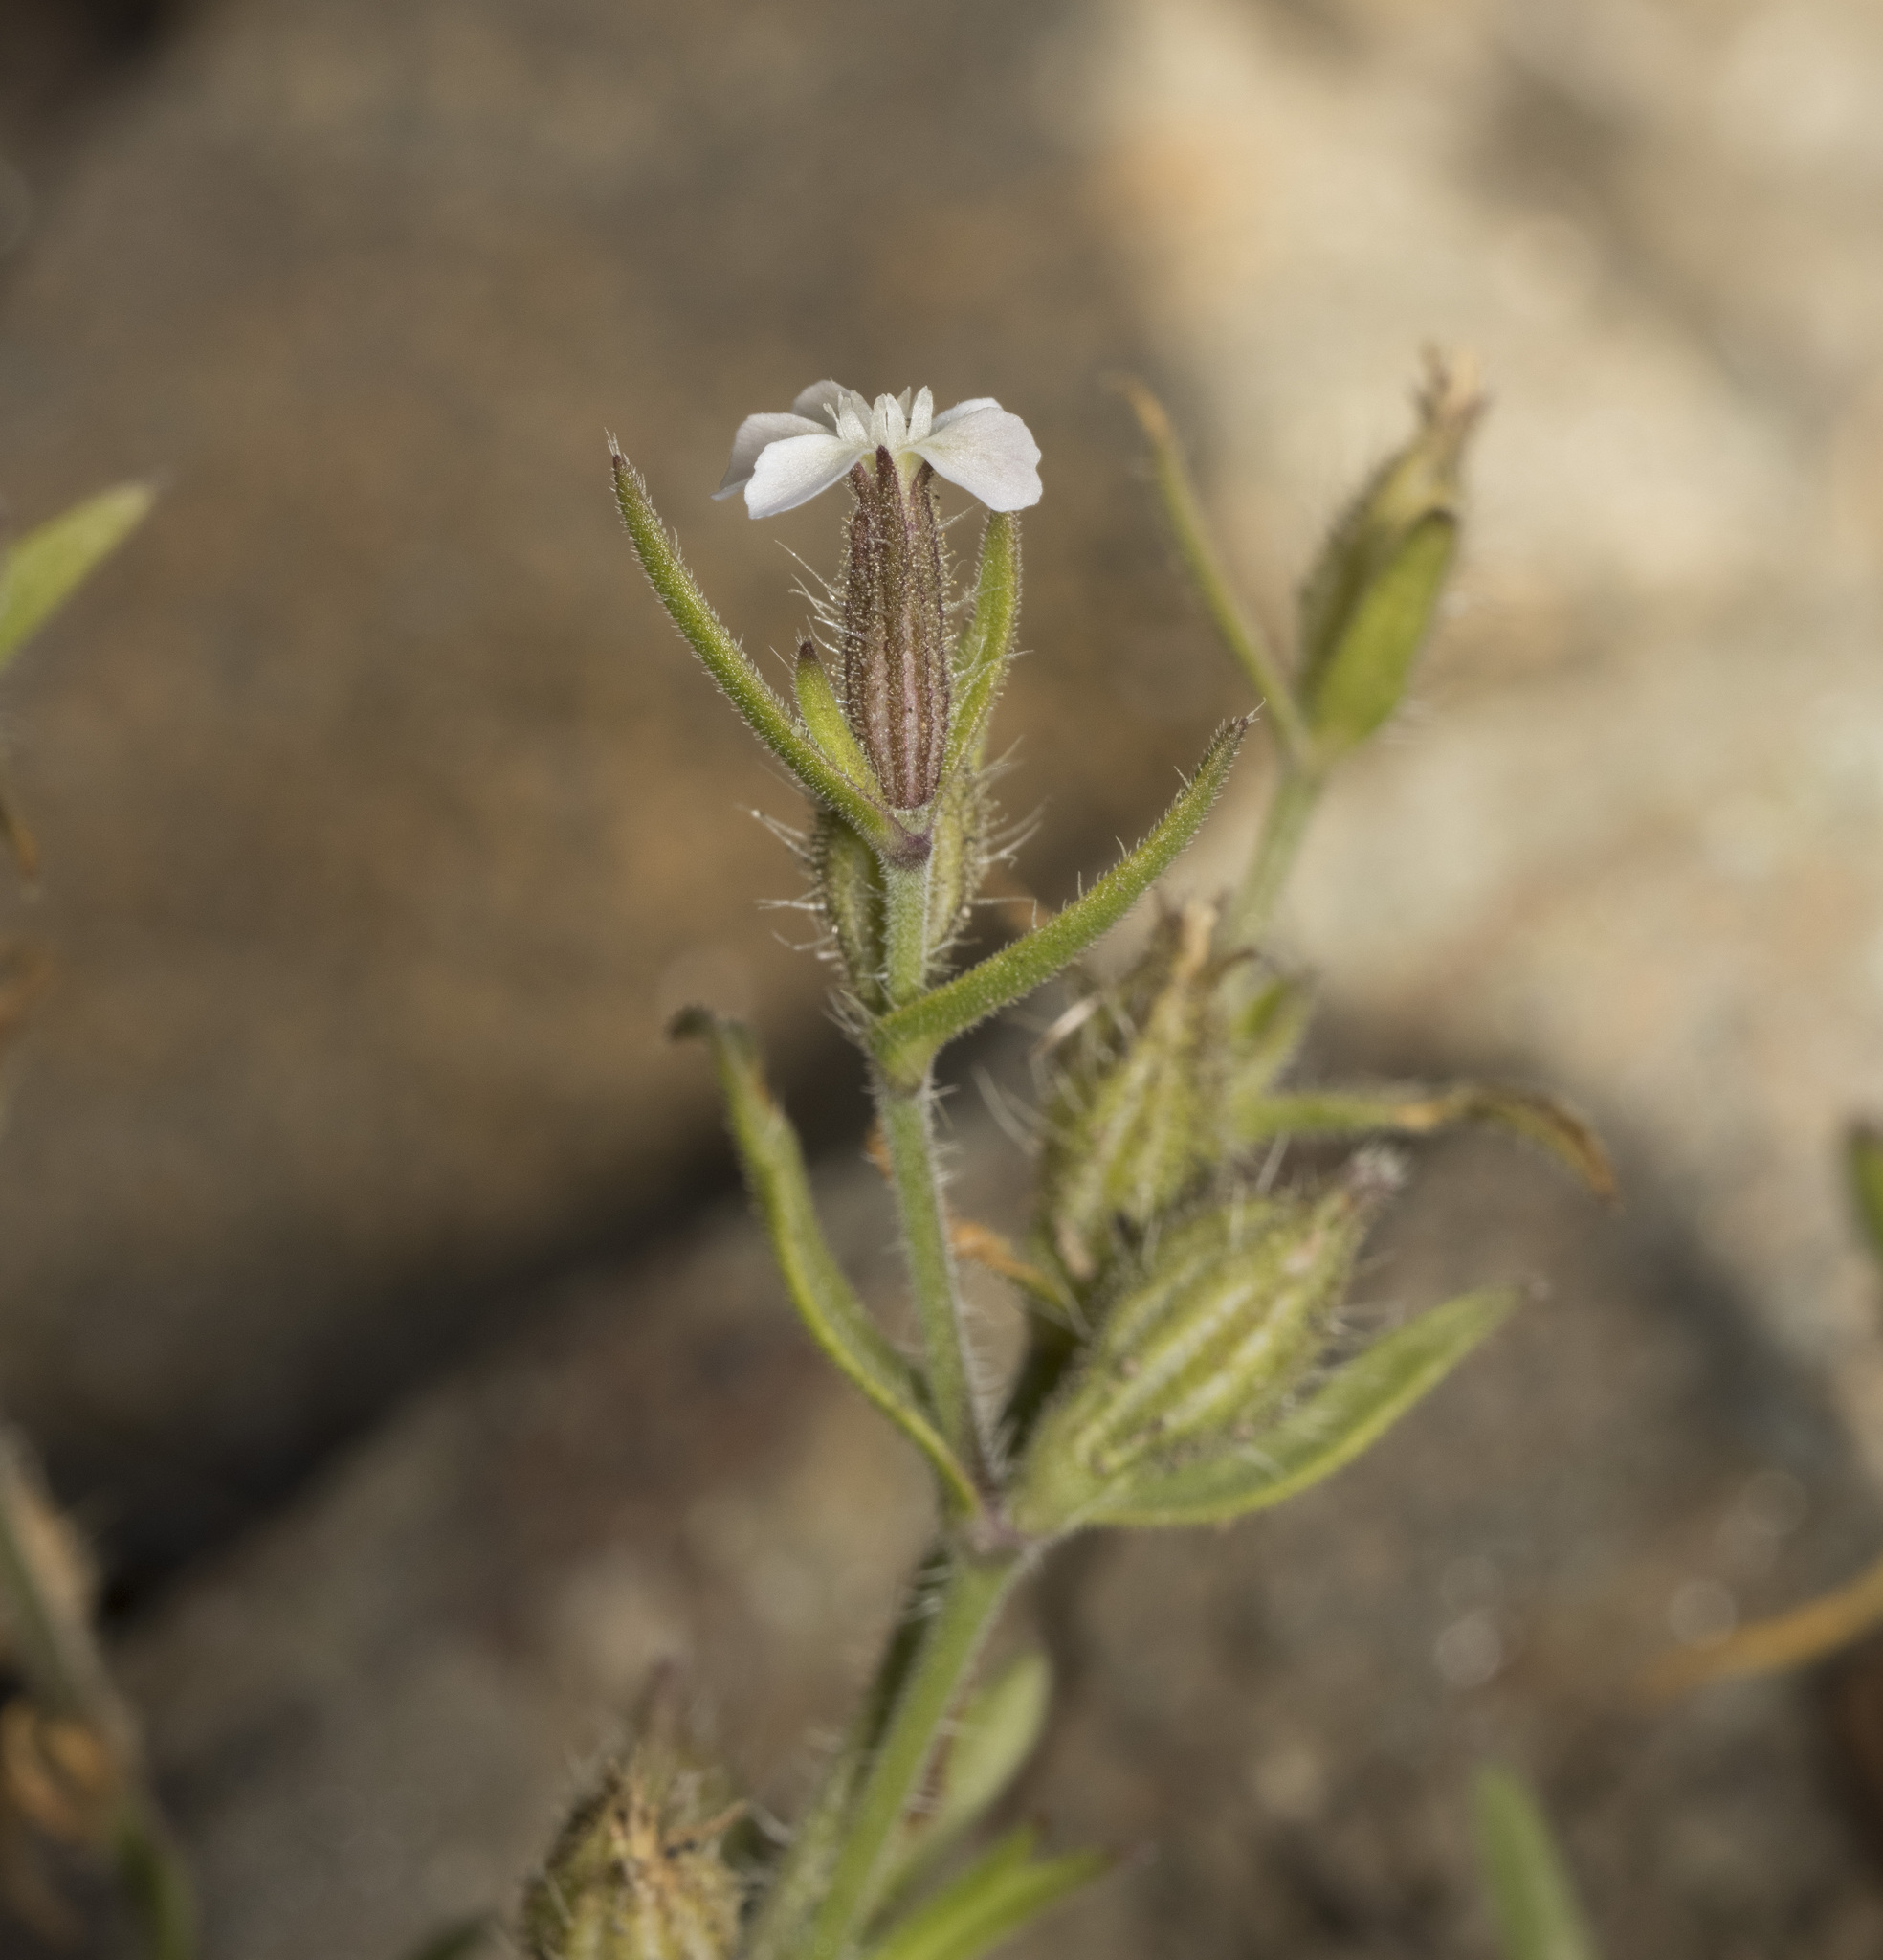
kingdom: Plantae
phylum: Tracheophyta
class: Magnoliopsida
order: Caryophyllales
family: Caryophyllaceae
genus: Silene
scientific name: Silene gallica
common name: Small-flowered catchfly
